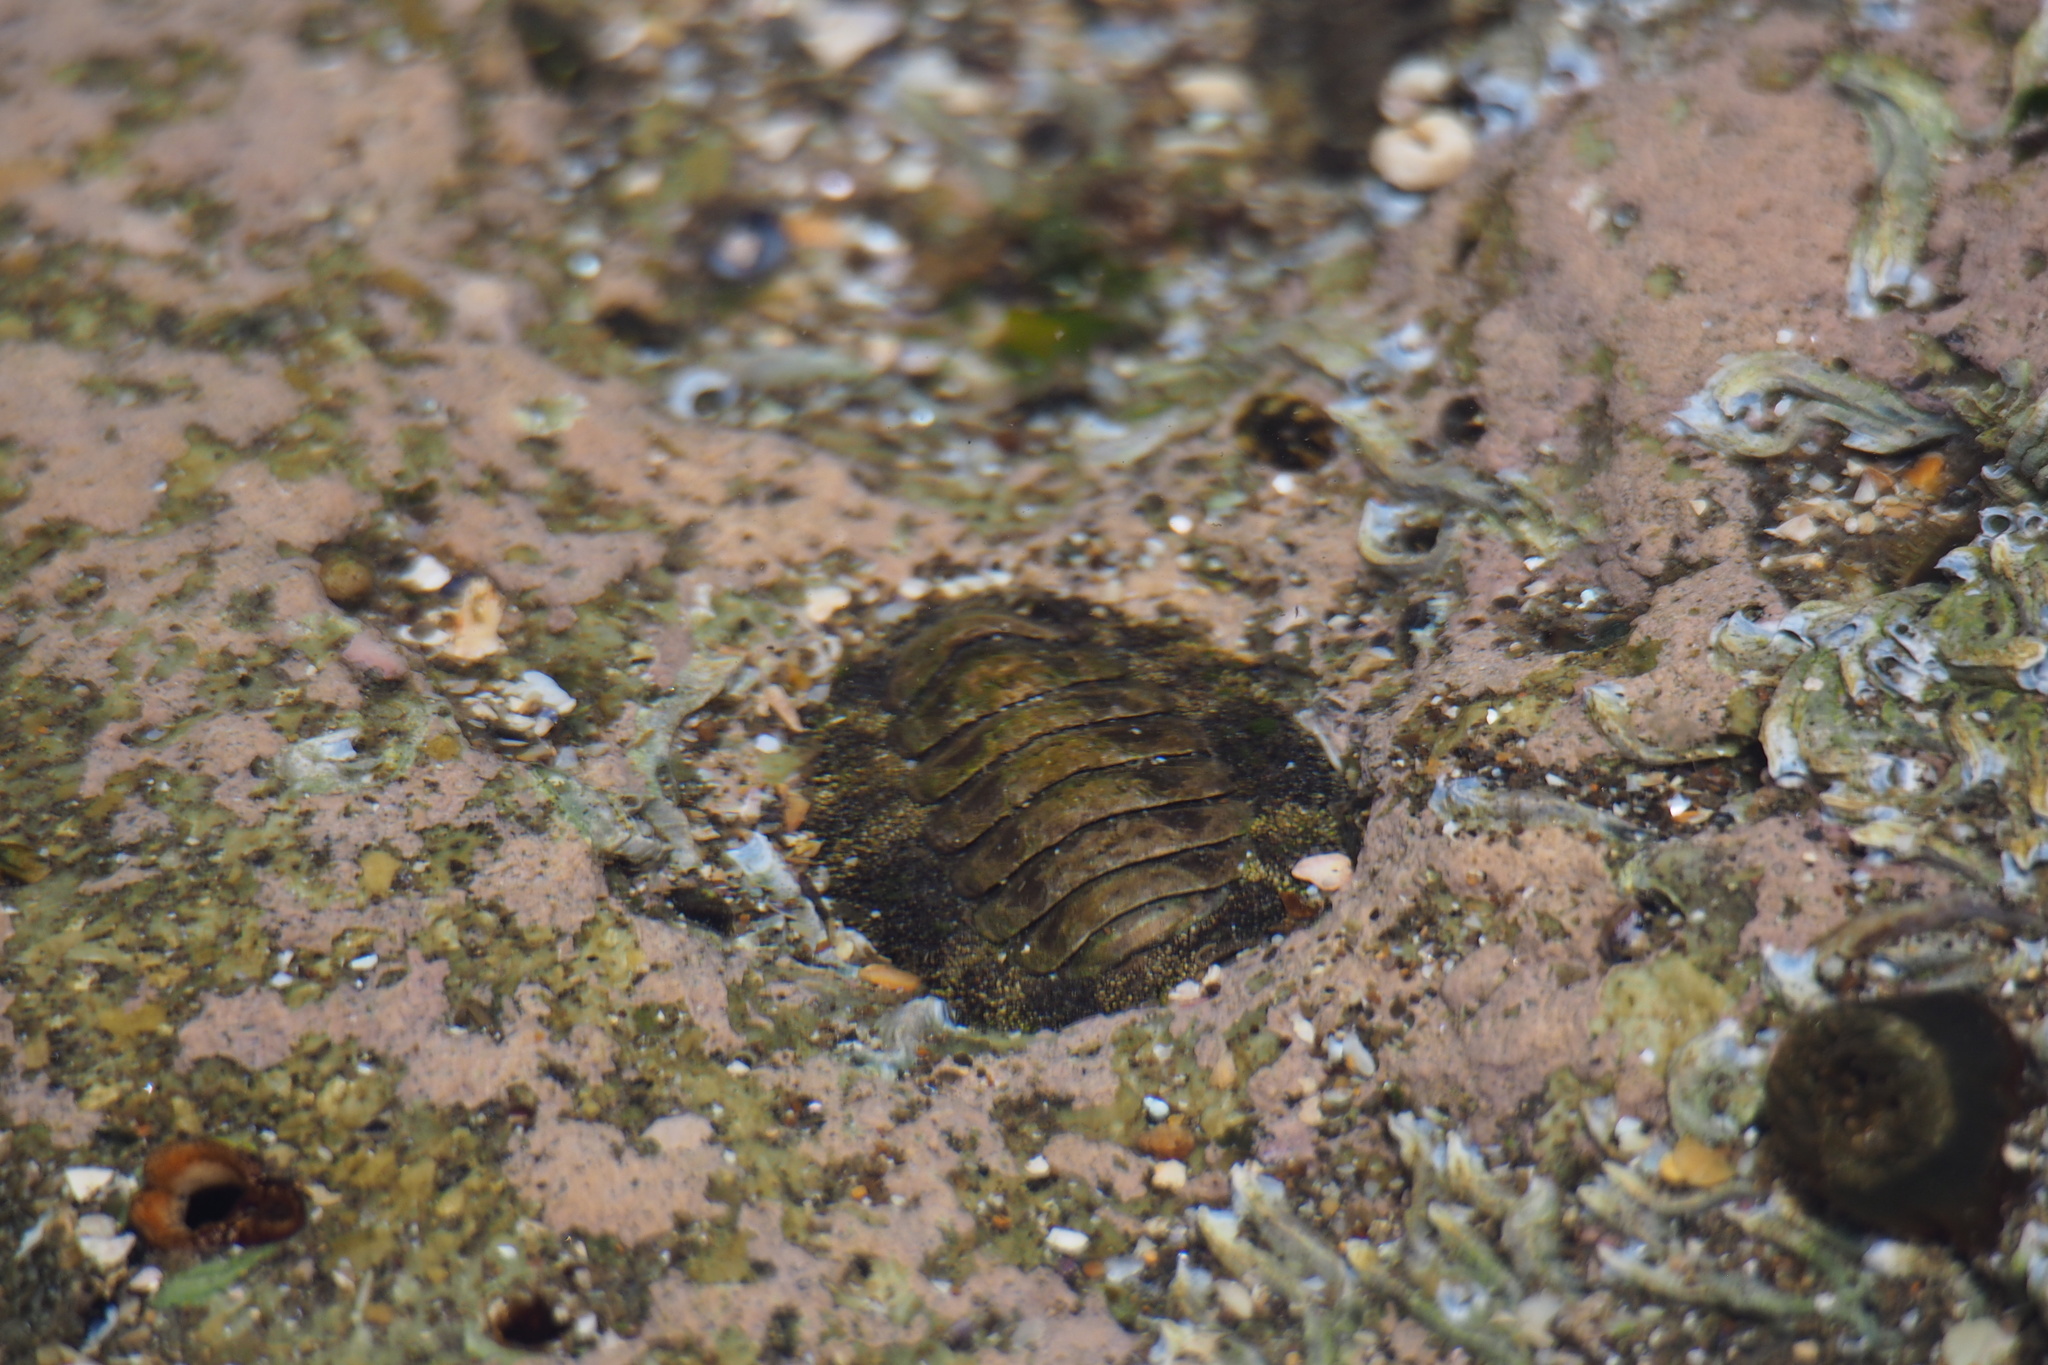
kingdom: Animalia
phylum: Mollusca
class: Polyplacophora
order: Chitonida
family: Chitonidae
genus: Liolophura
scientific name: Liolophura japonica
